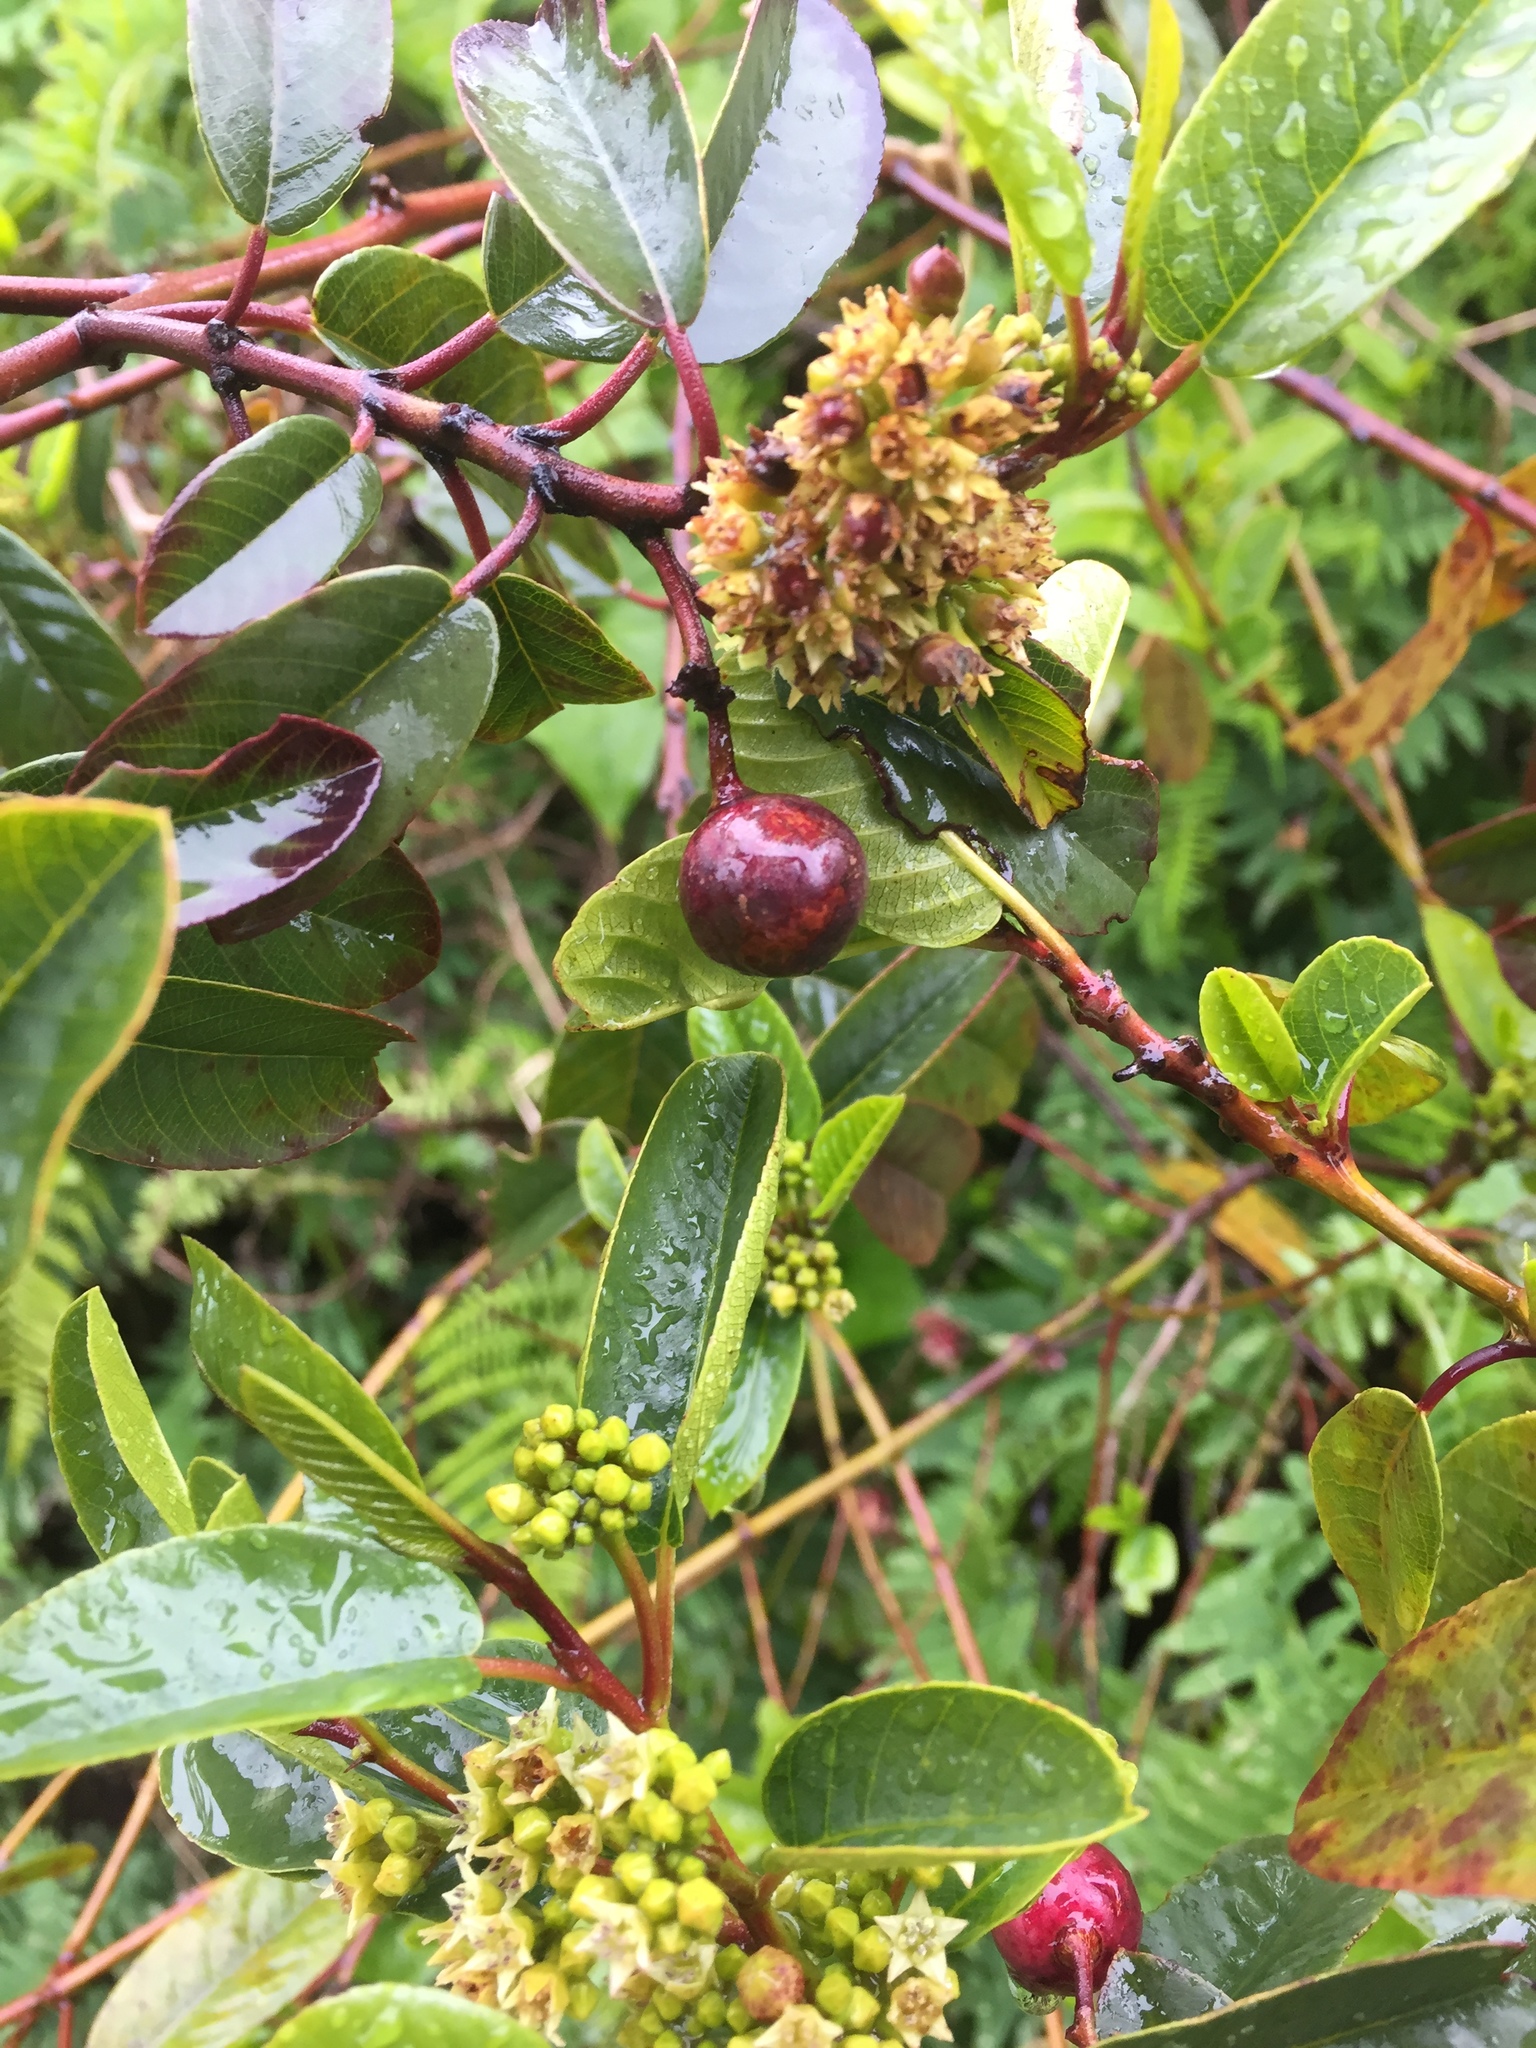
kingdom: Plantae
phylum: Tracheophyta
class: Magnoliopsida
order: Rosales
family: Rhamnaceae
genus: Frangula
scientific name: Frangula californica
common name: California buckthorn
